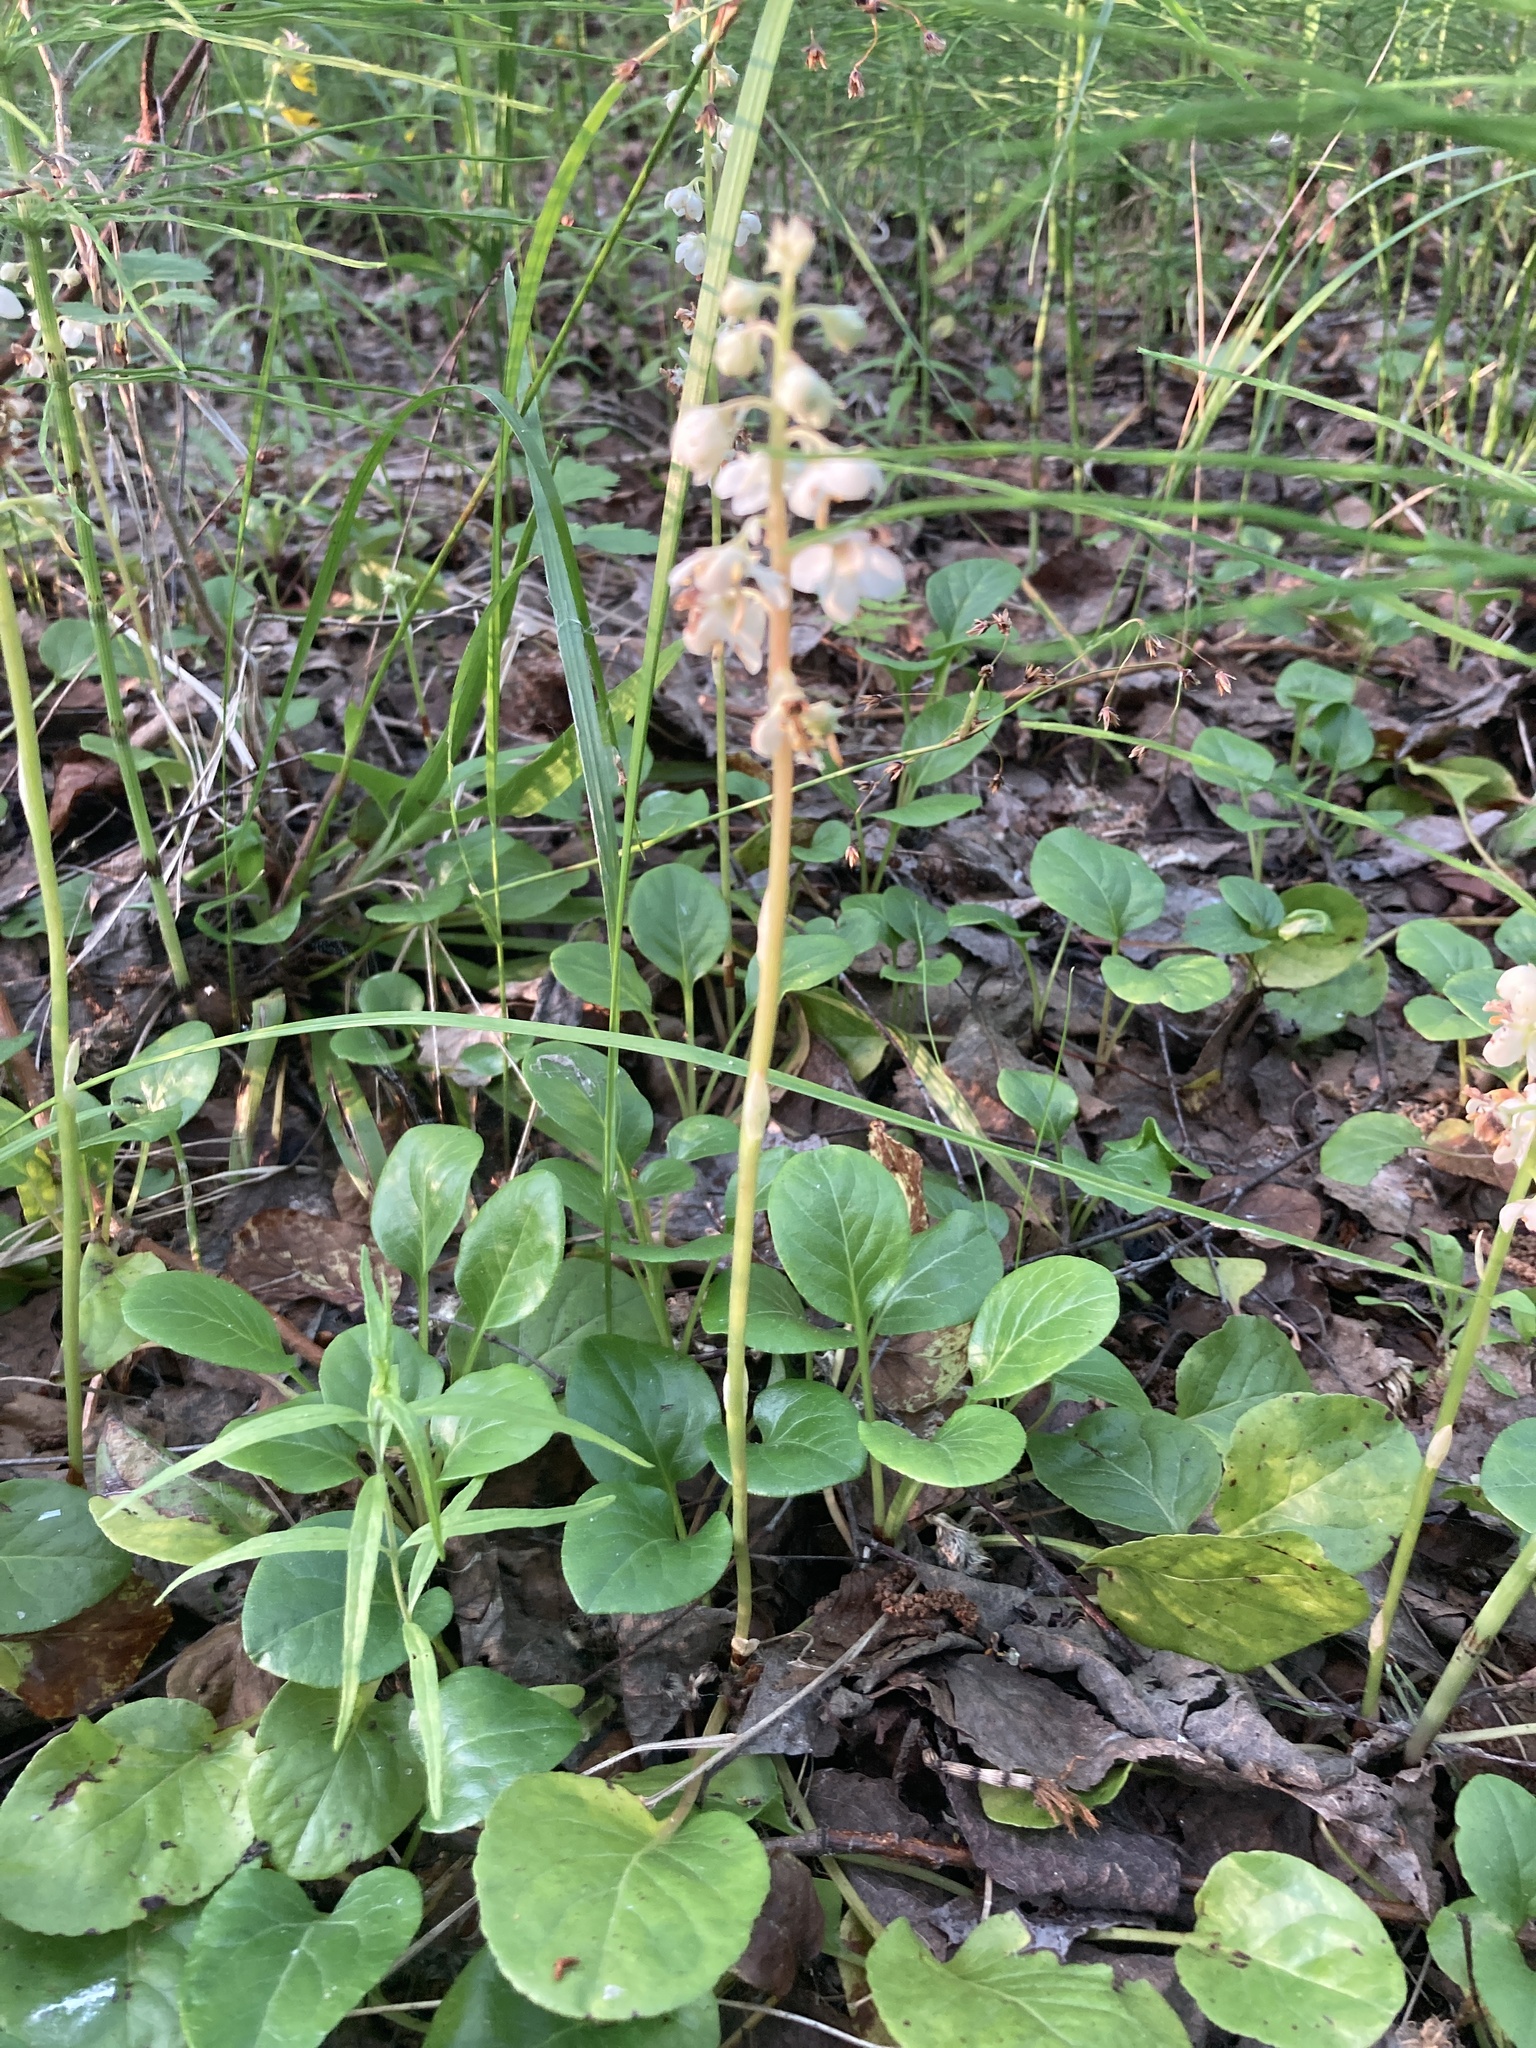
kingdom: Plantae
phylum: Tracheophyta
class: Magnoliopsida
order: Ericales
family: Ericaceae
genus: Pyrola
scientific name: Pyrola rotundifolia
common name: Round-leaved wintergreen
